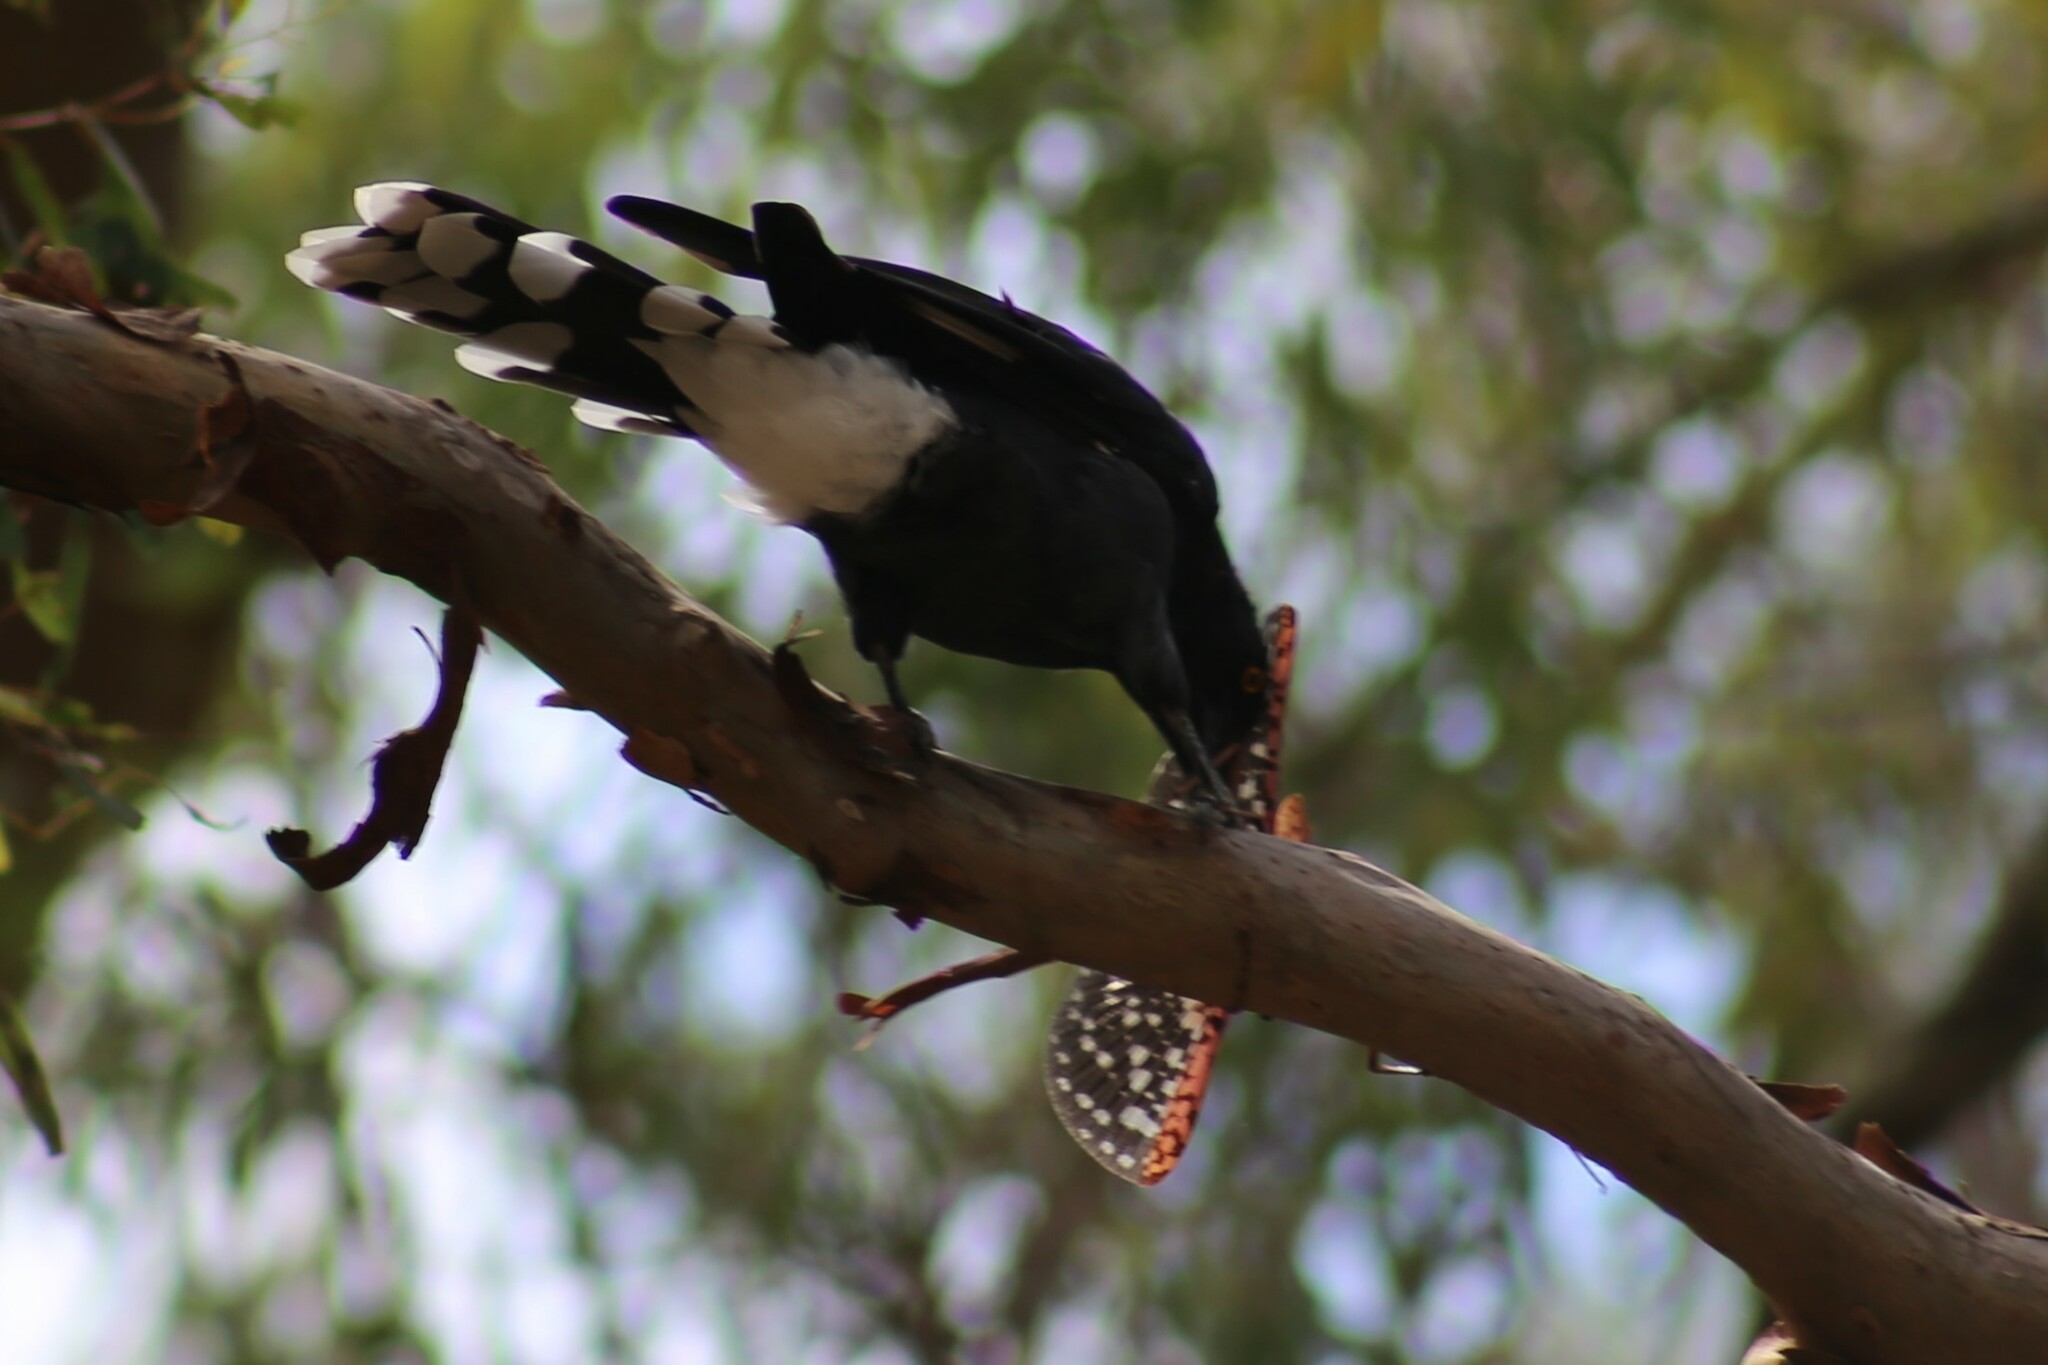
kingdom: Animalia
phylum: Arthropoda
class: Insecta
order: Phasmida
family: Phasmatidae
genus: Acrophylla
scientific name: Acrophylla enceladus
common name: Giant acrophylla stick-insect
